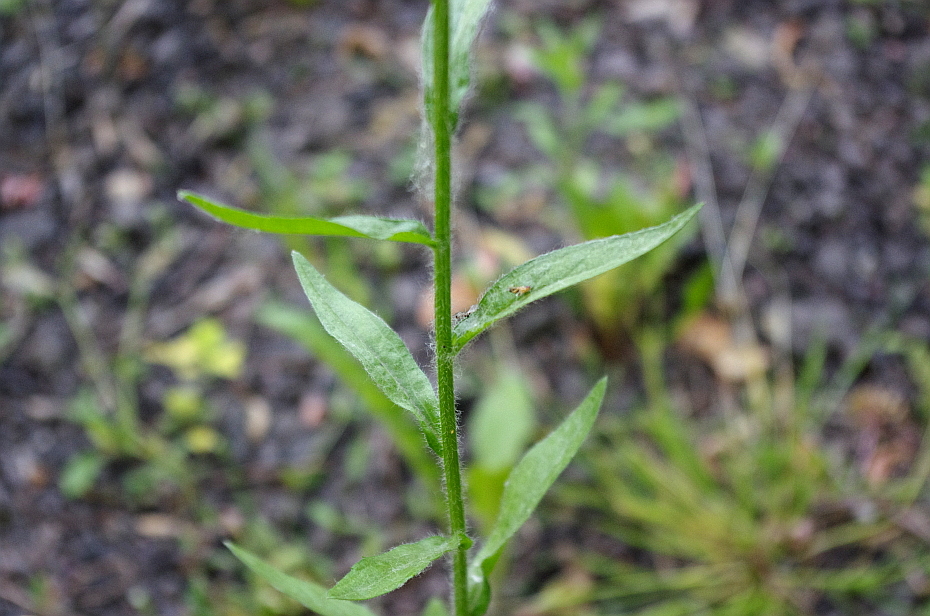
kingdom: Plantae
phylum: Tracheophyta
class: Magnoliopsida
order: Asterales
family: Asteraceae
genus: Erigeron
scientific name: Erigeron annuus
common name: Tall fleabane
